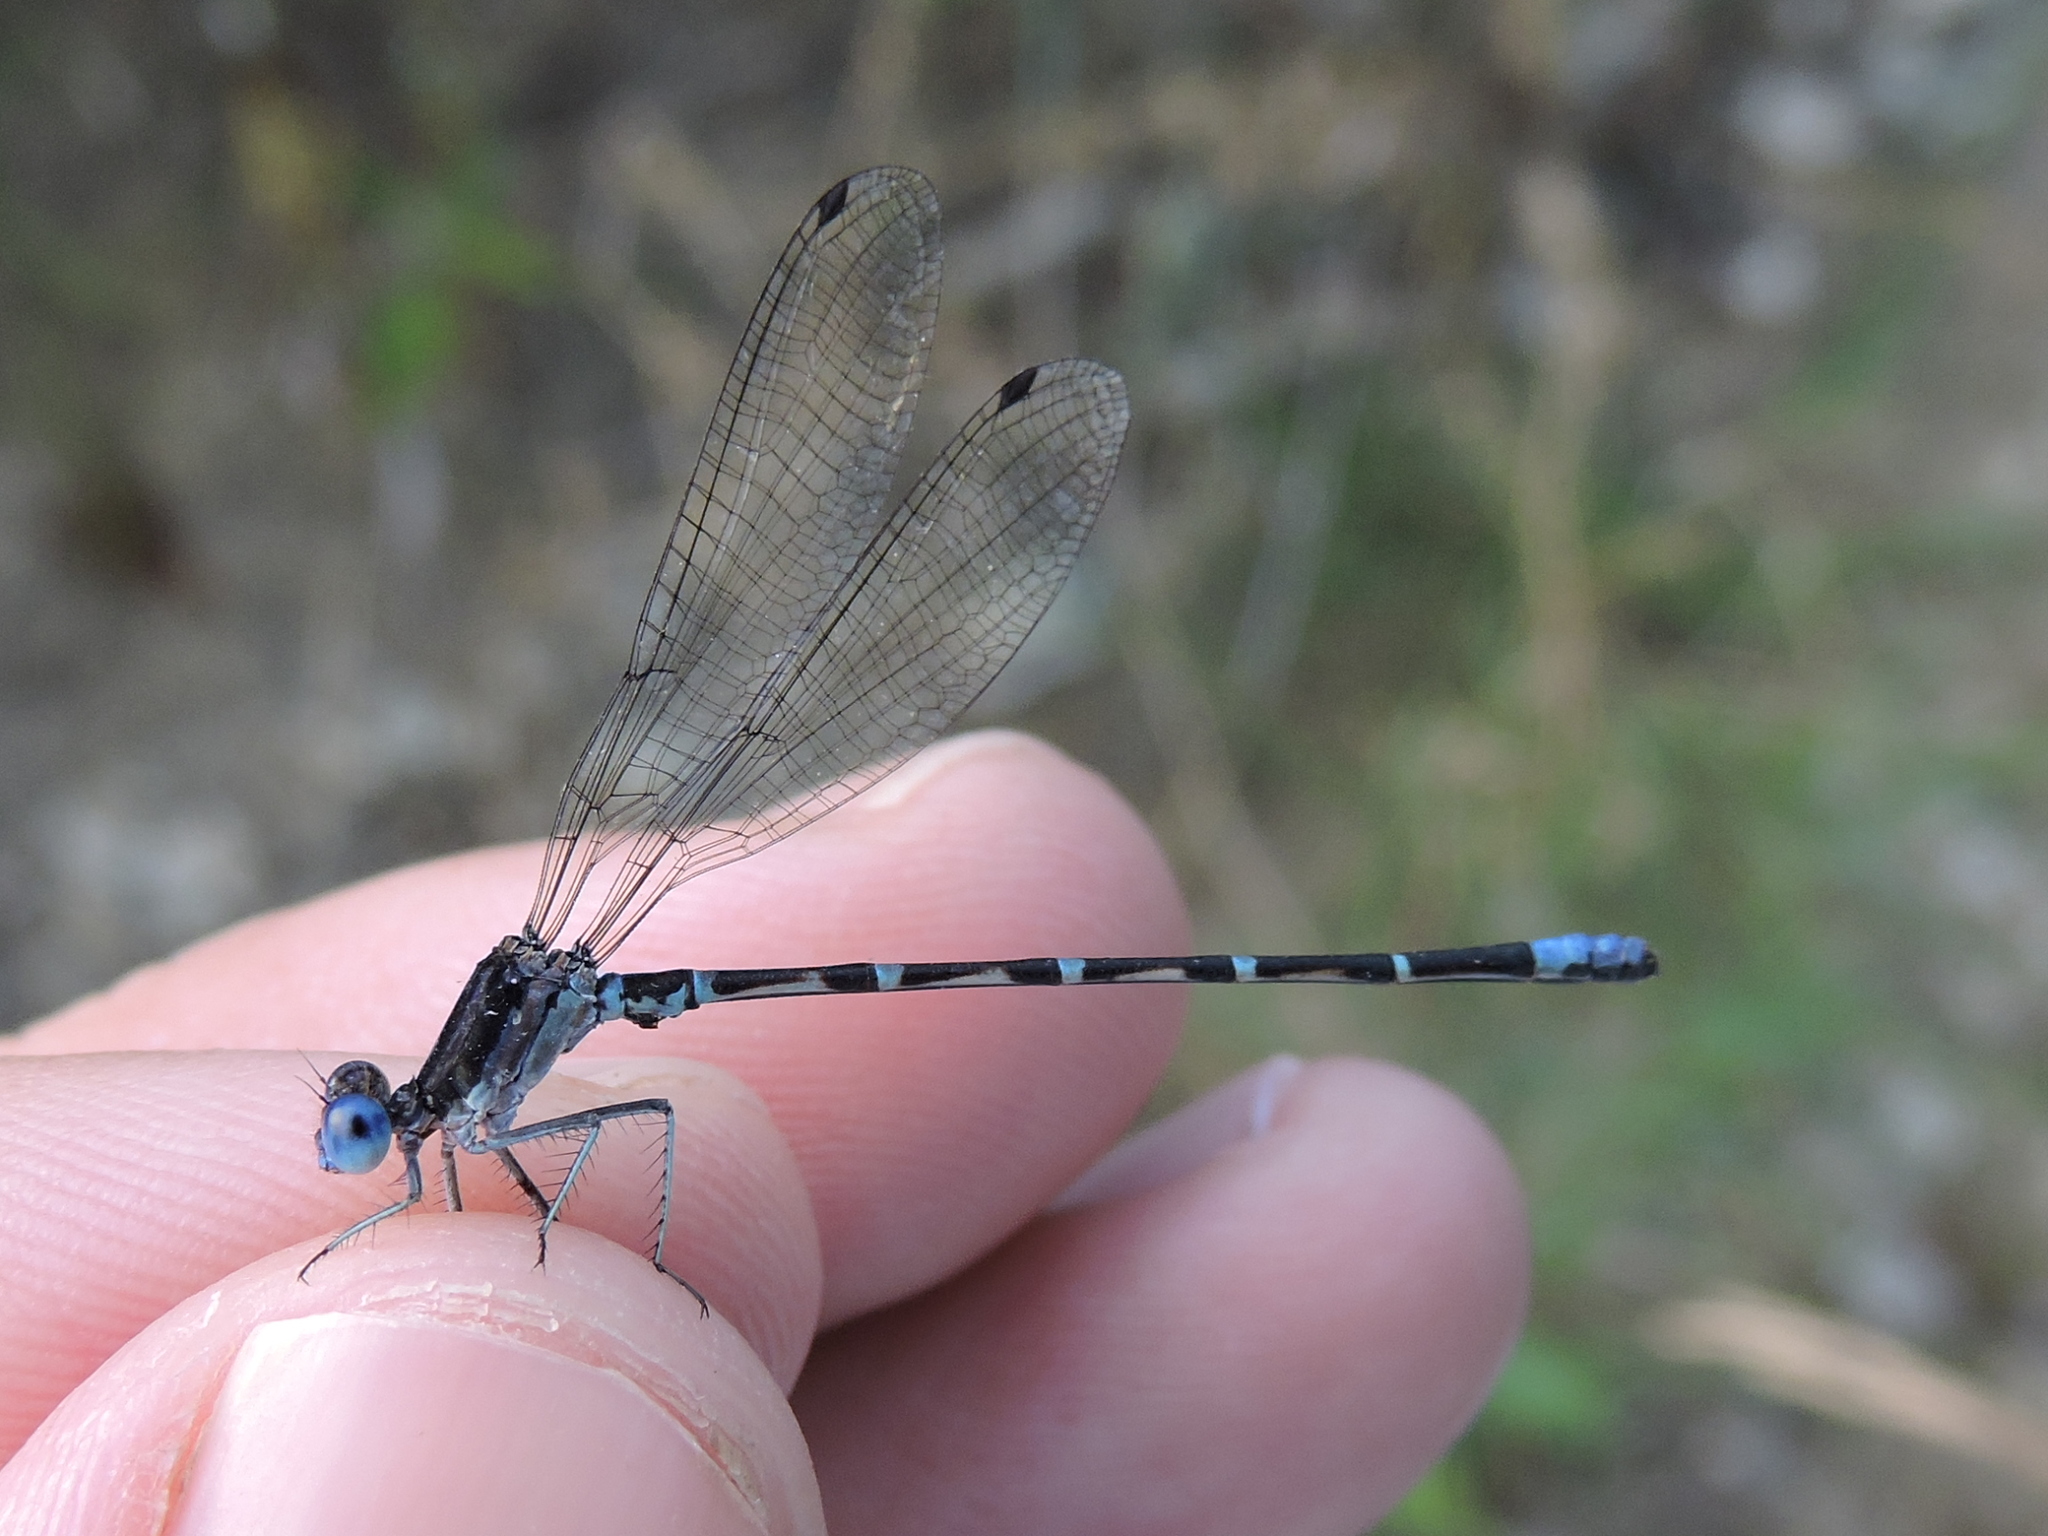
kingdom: Animalia
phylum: Arthropoda
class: Insecta
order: Odonata
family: Coenagrionidae
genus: Argia
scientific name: Argia sedula
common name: Blue-ringed dancer
